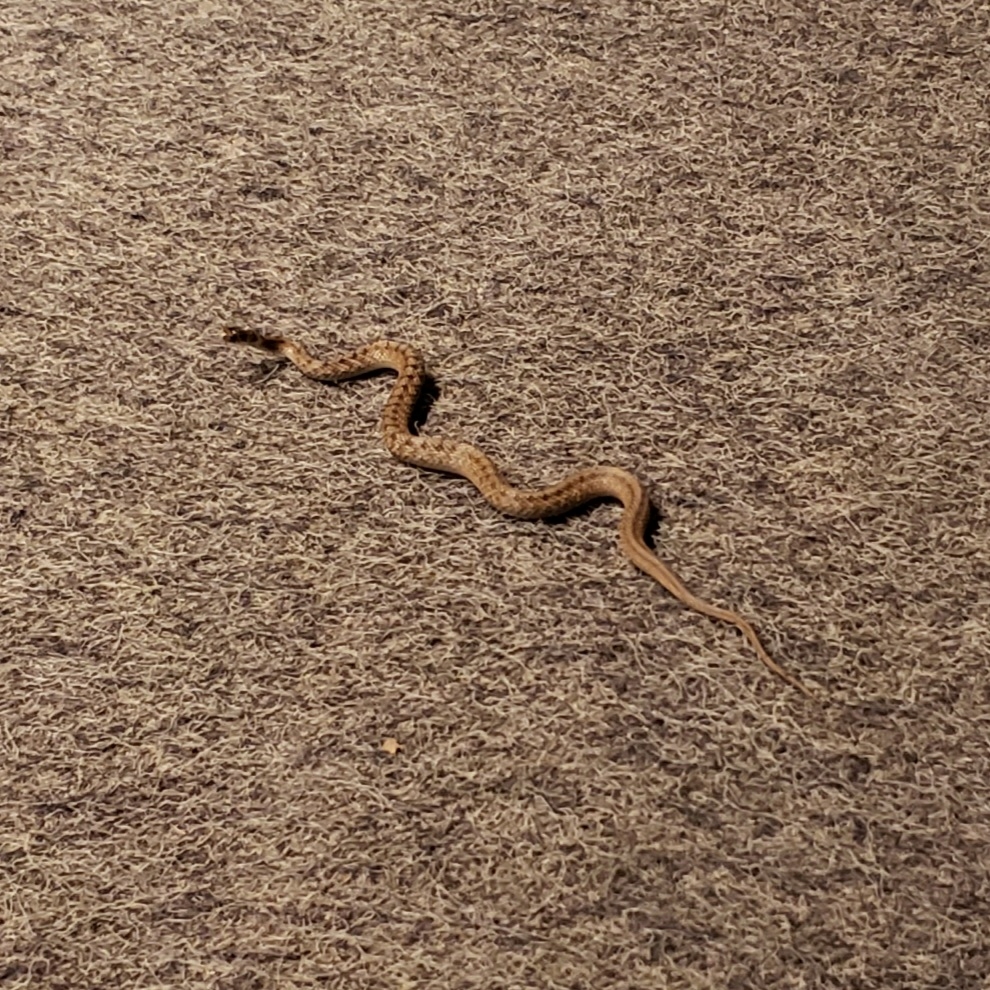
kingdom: Animalia
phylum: Chordata
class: Squamata
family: Colubridae
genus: Storeria
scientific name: Storeria dekayi
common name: (dekay’s) brown snake
